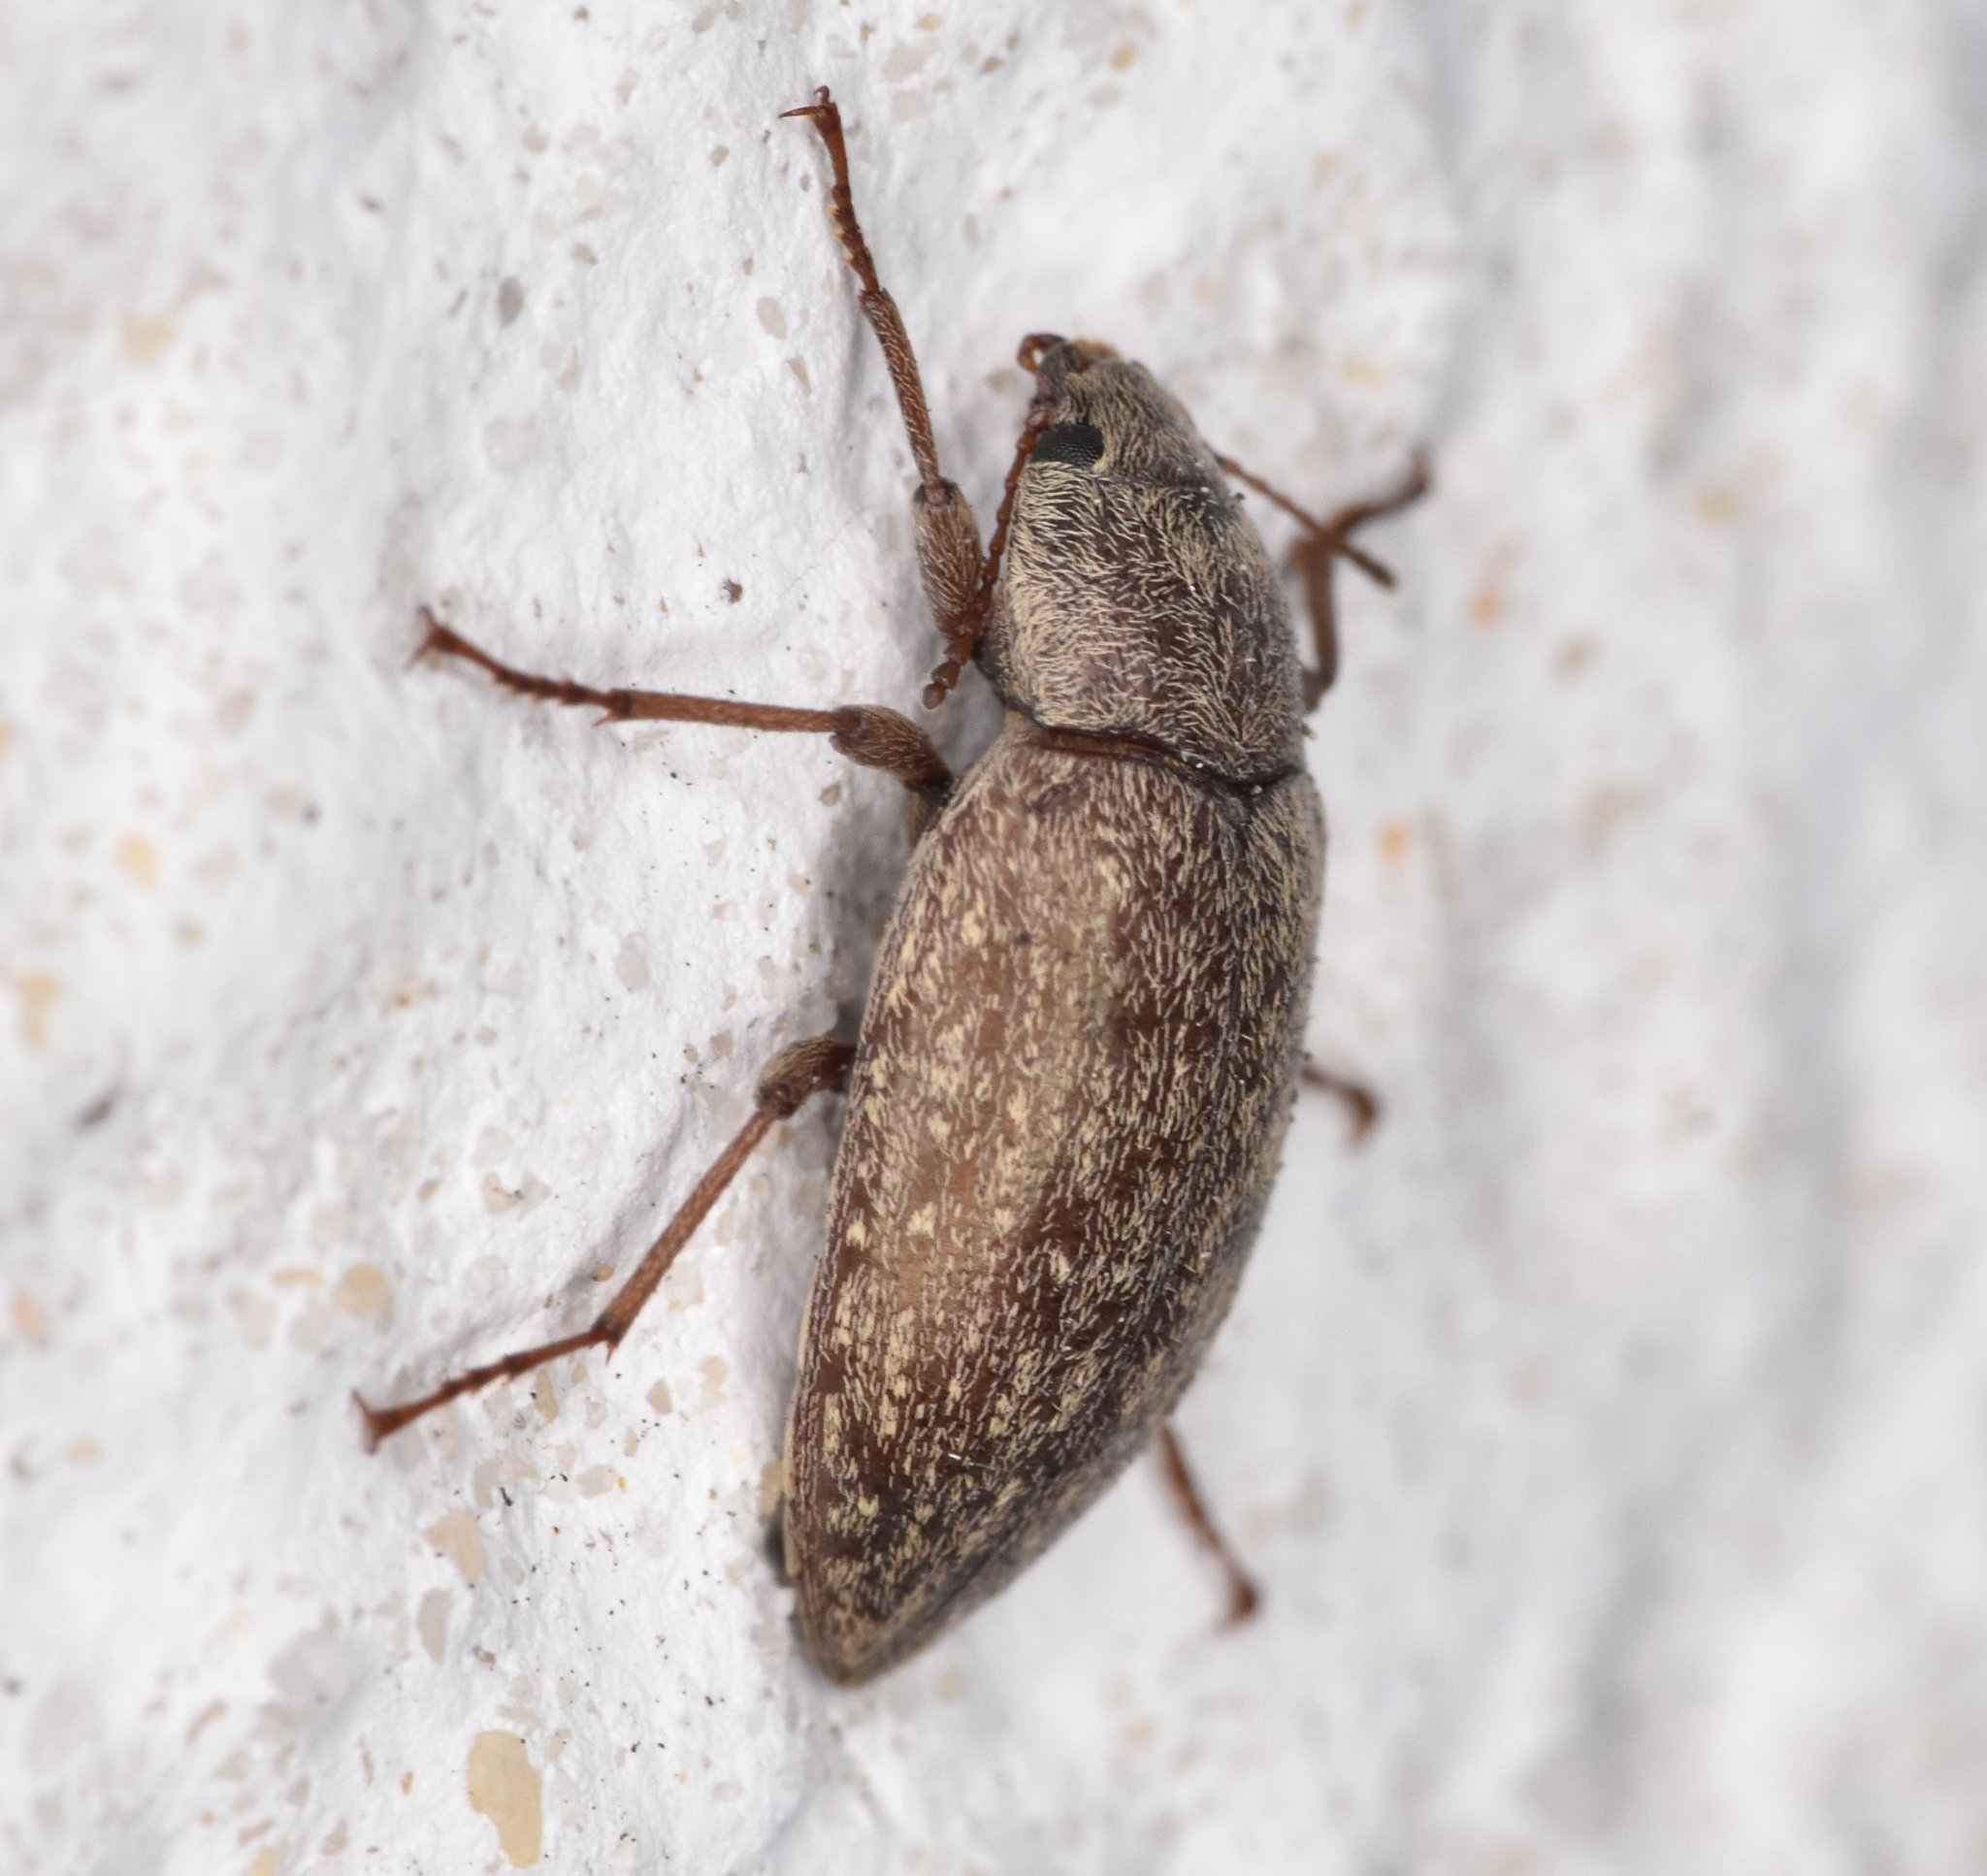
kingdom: Animalia
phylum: Arthropoda
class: Insecta
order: Coleoptera
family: Tenebrionidae
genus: Epitragodes
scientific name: Epitragodes tomentosus
